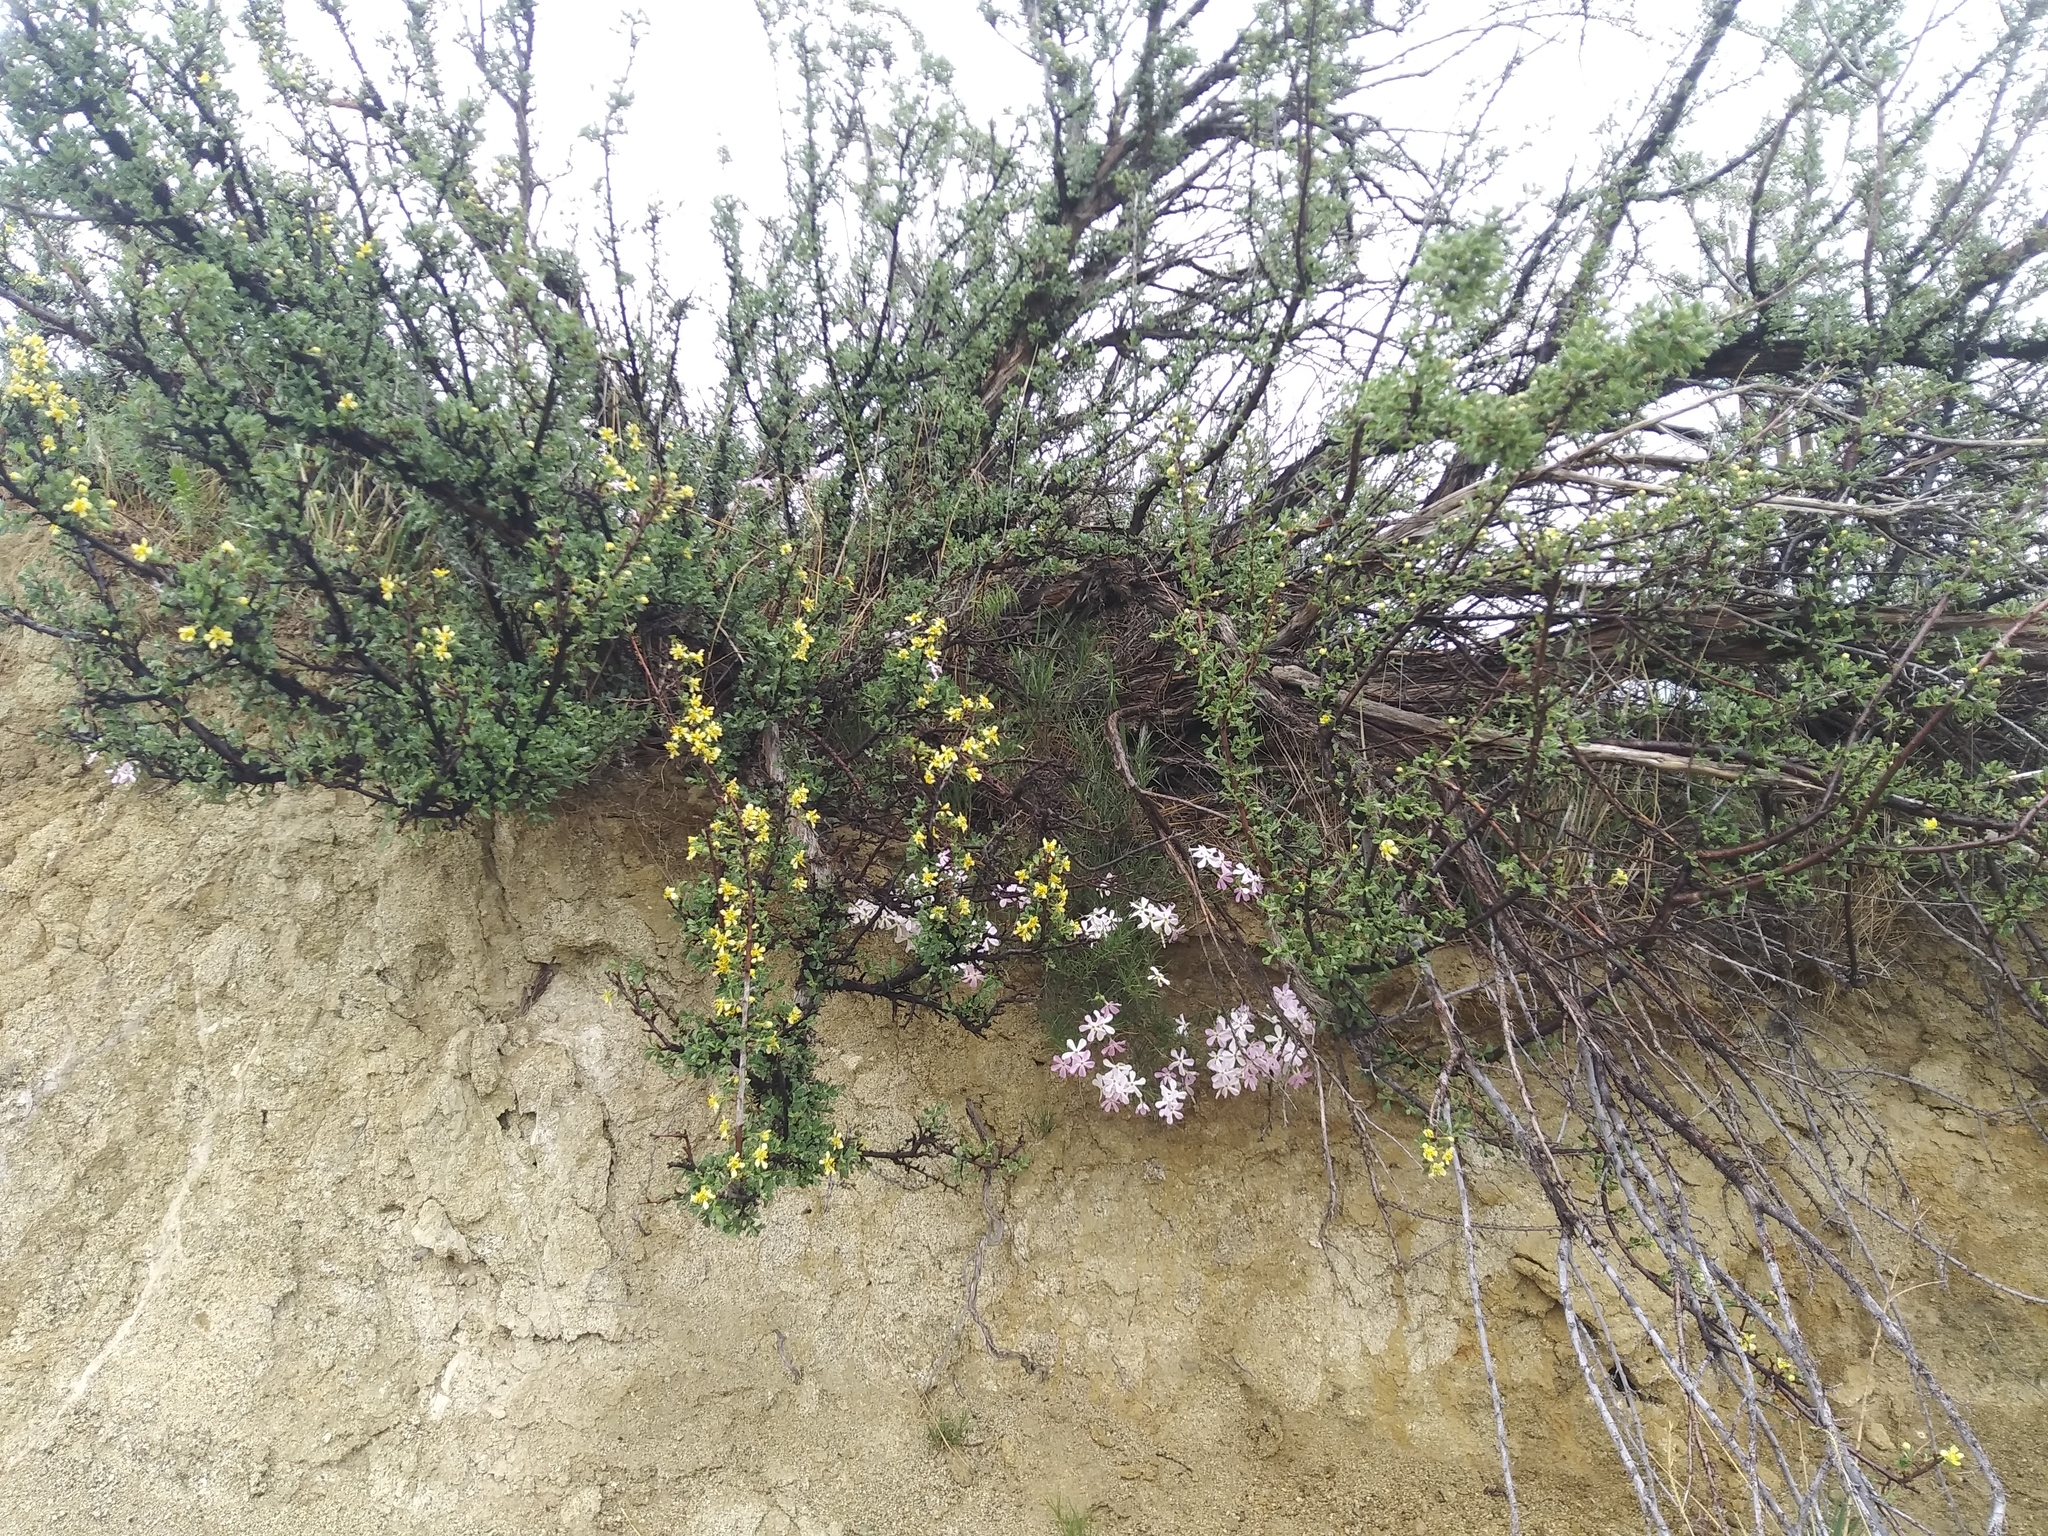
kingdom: Plantae
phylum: Tracheophyta
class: Magnoliopsida
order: Rosales
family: Rosaceae
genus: Purshia
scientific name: Purshia tridentata
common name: Antelope bitterbrush
